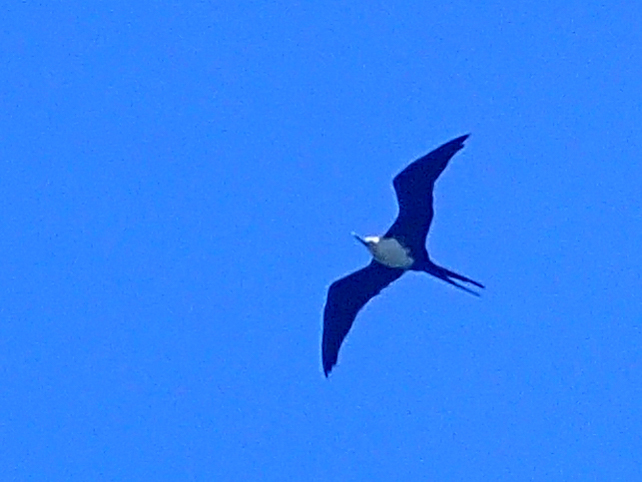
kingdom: Animalia
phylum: Chordata
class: Aves
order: Suliformes
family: Fregatidae
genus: Fregata
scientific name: Fregata magnificens
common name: Magnificent frigatebird
